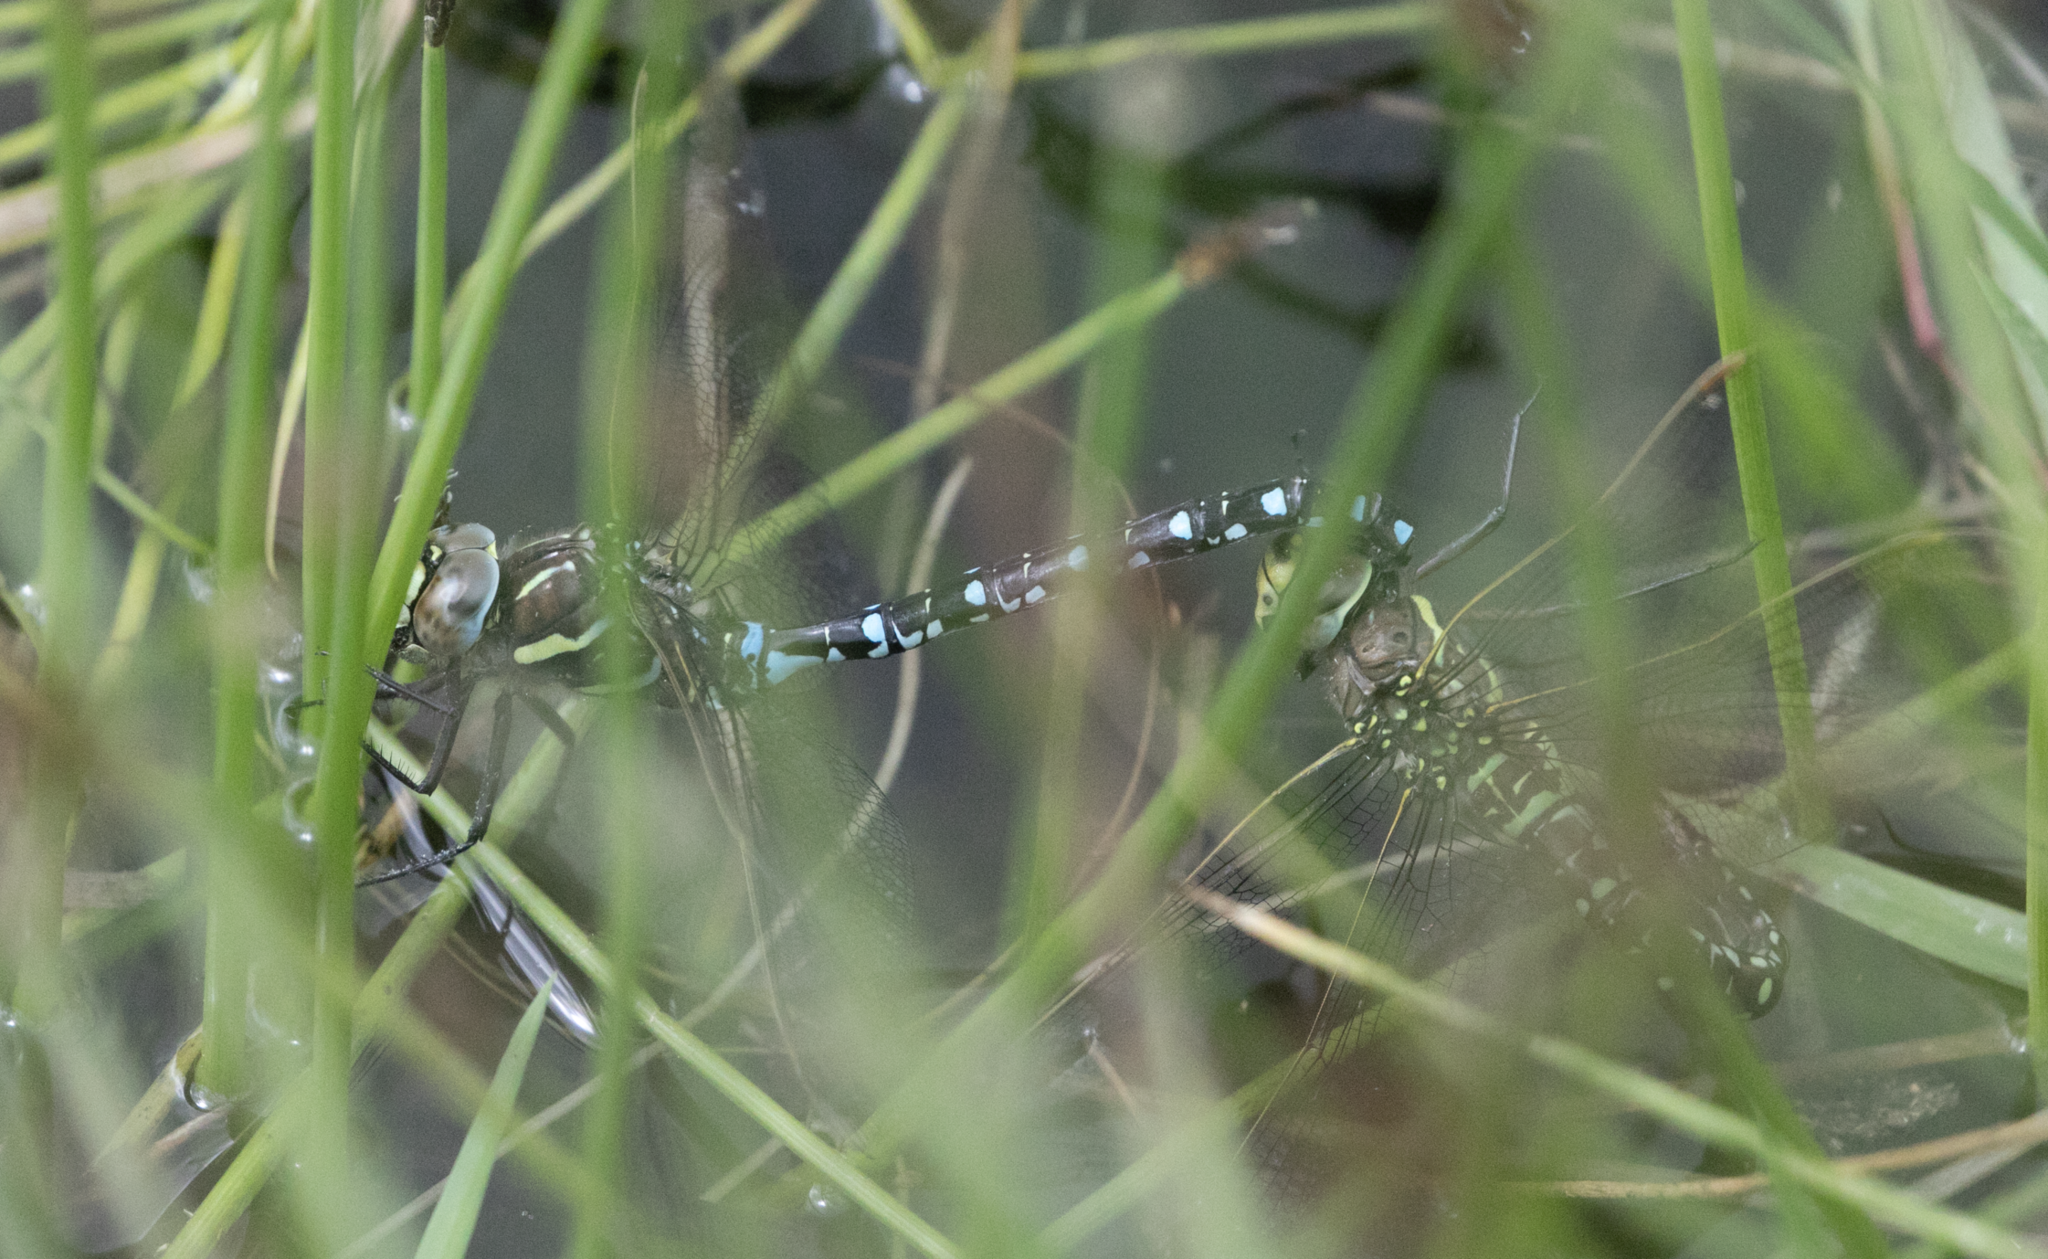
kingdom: Animalia
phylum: Arthropoda
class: Insecta
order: Odonata
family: Aeshnidae
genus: Aeshna
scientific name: Aeshna juncea
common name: Moorland hawker
